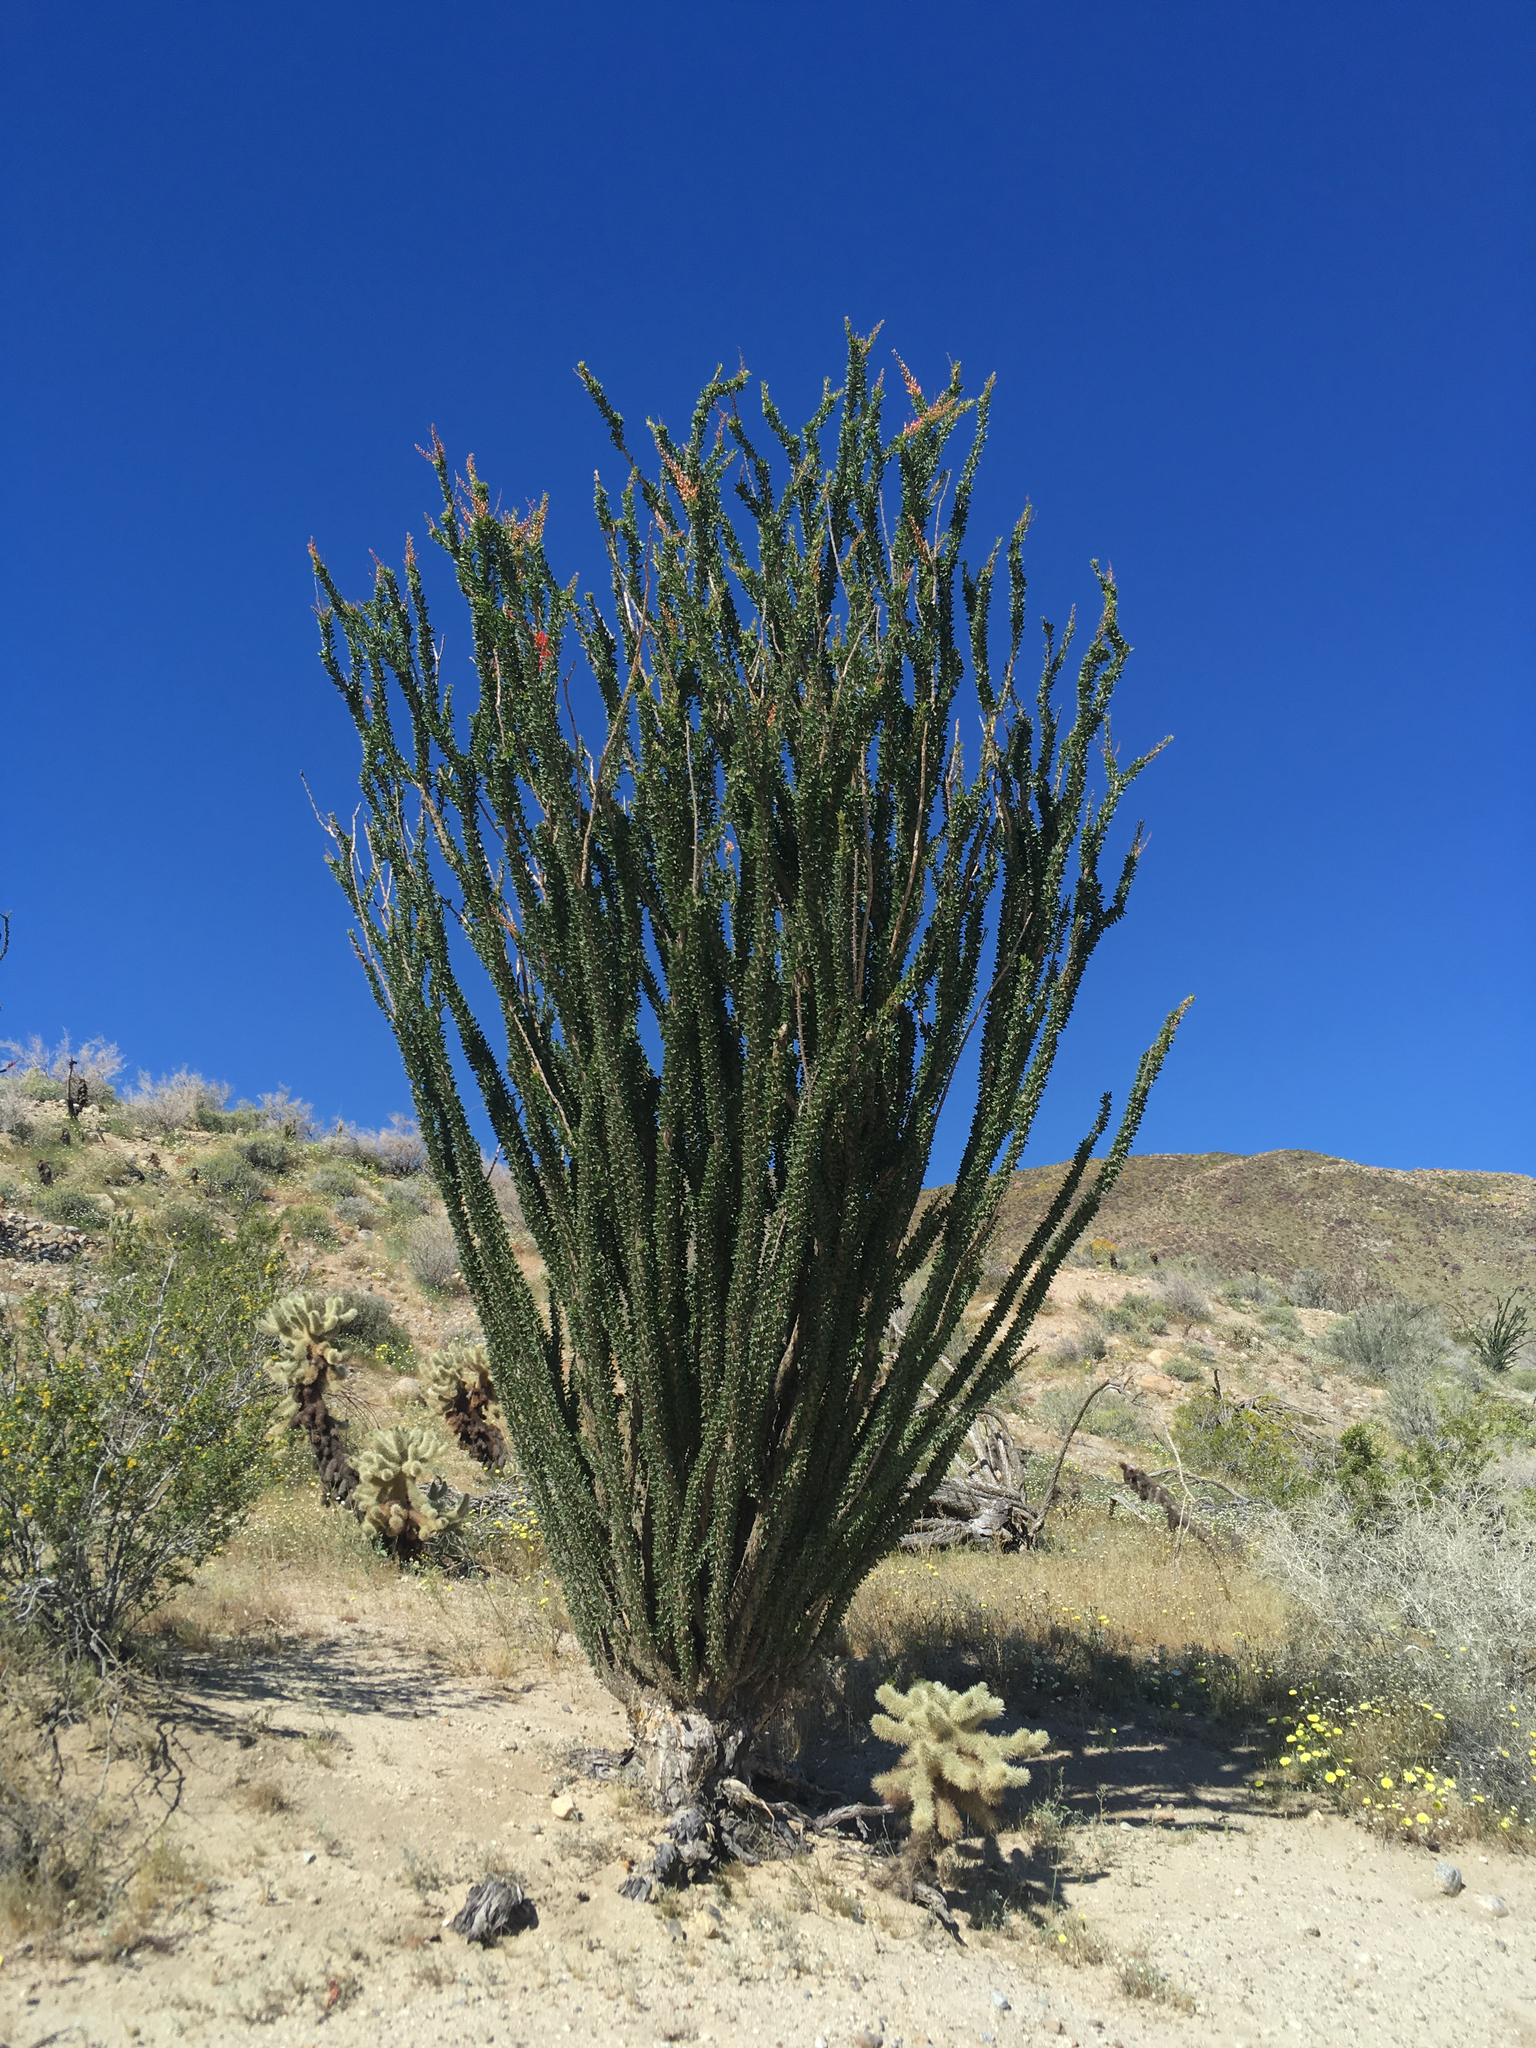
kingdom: Plantae
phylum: Tracheophyta
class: Magnoliopsida
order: Ericales
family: Fouquieriaceae
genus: Fouquieria
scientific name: Fouquieria splendens
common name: Vine-cactus
